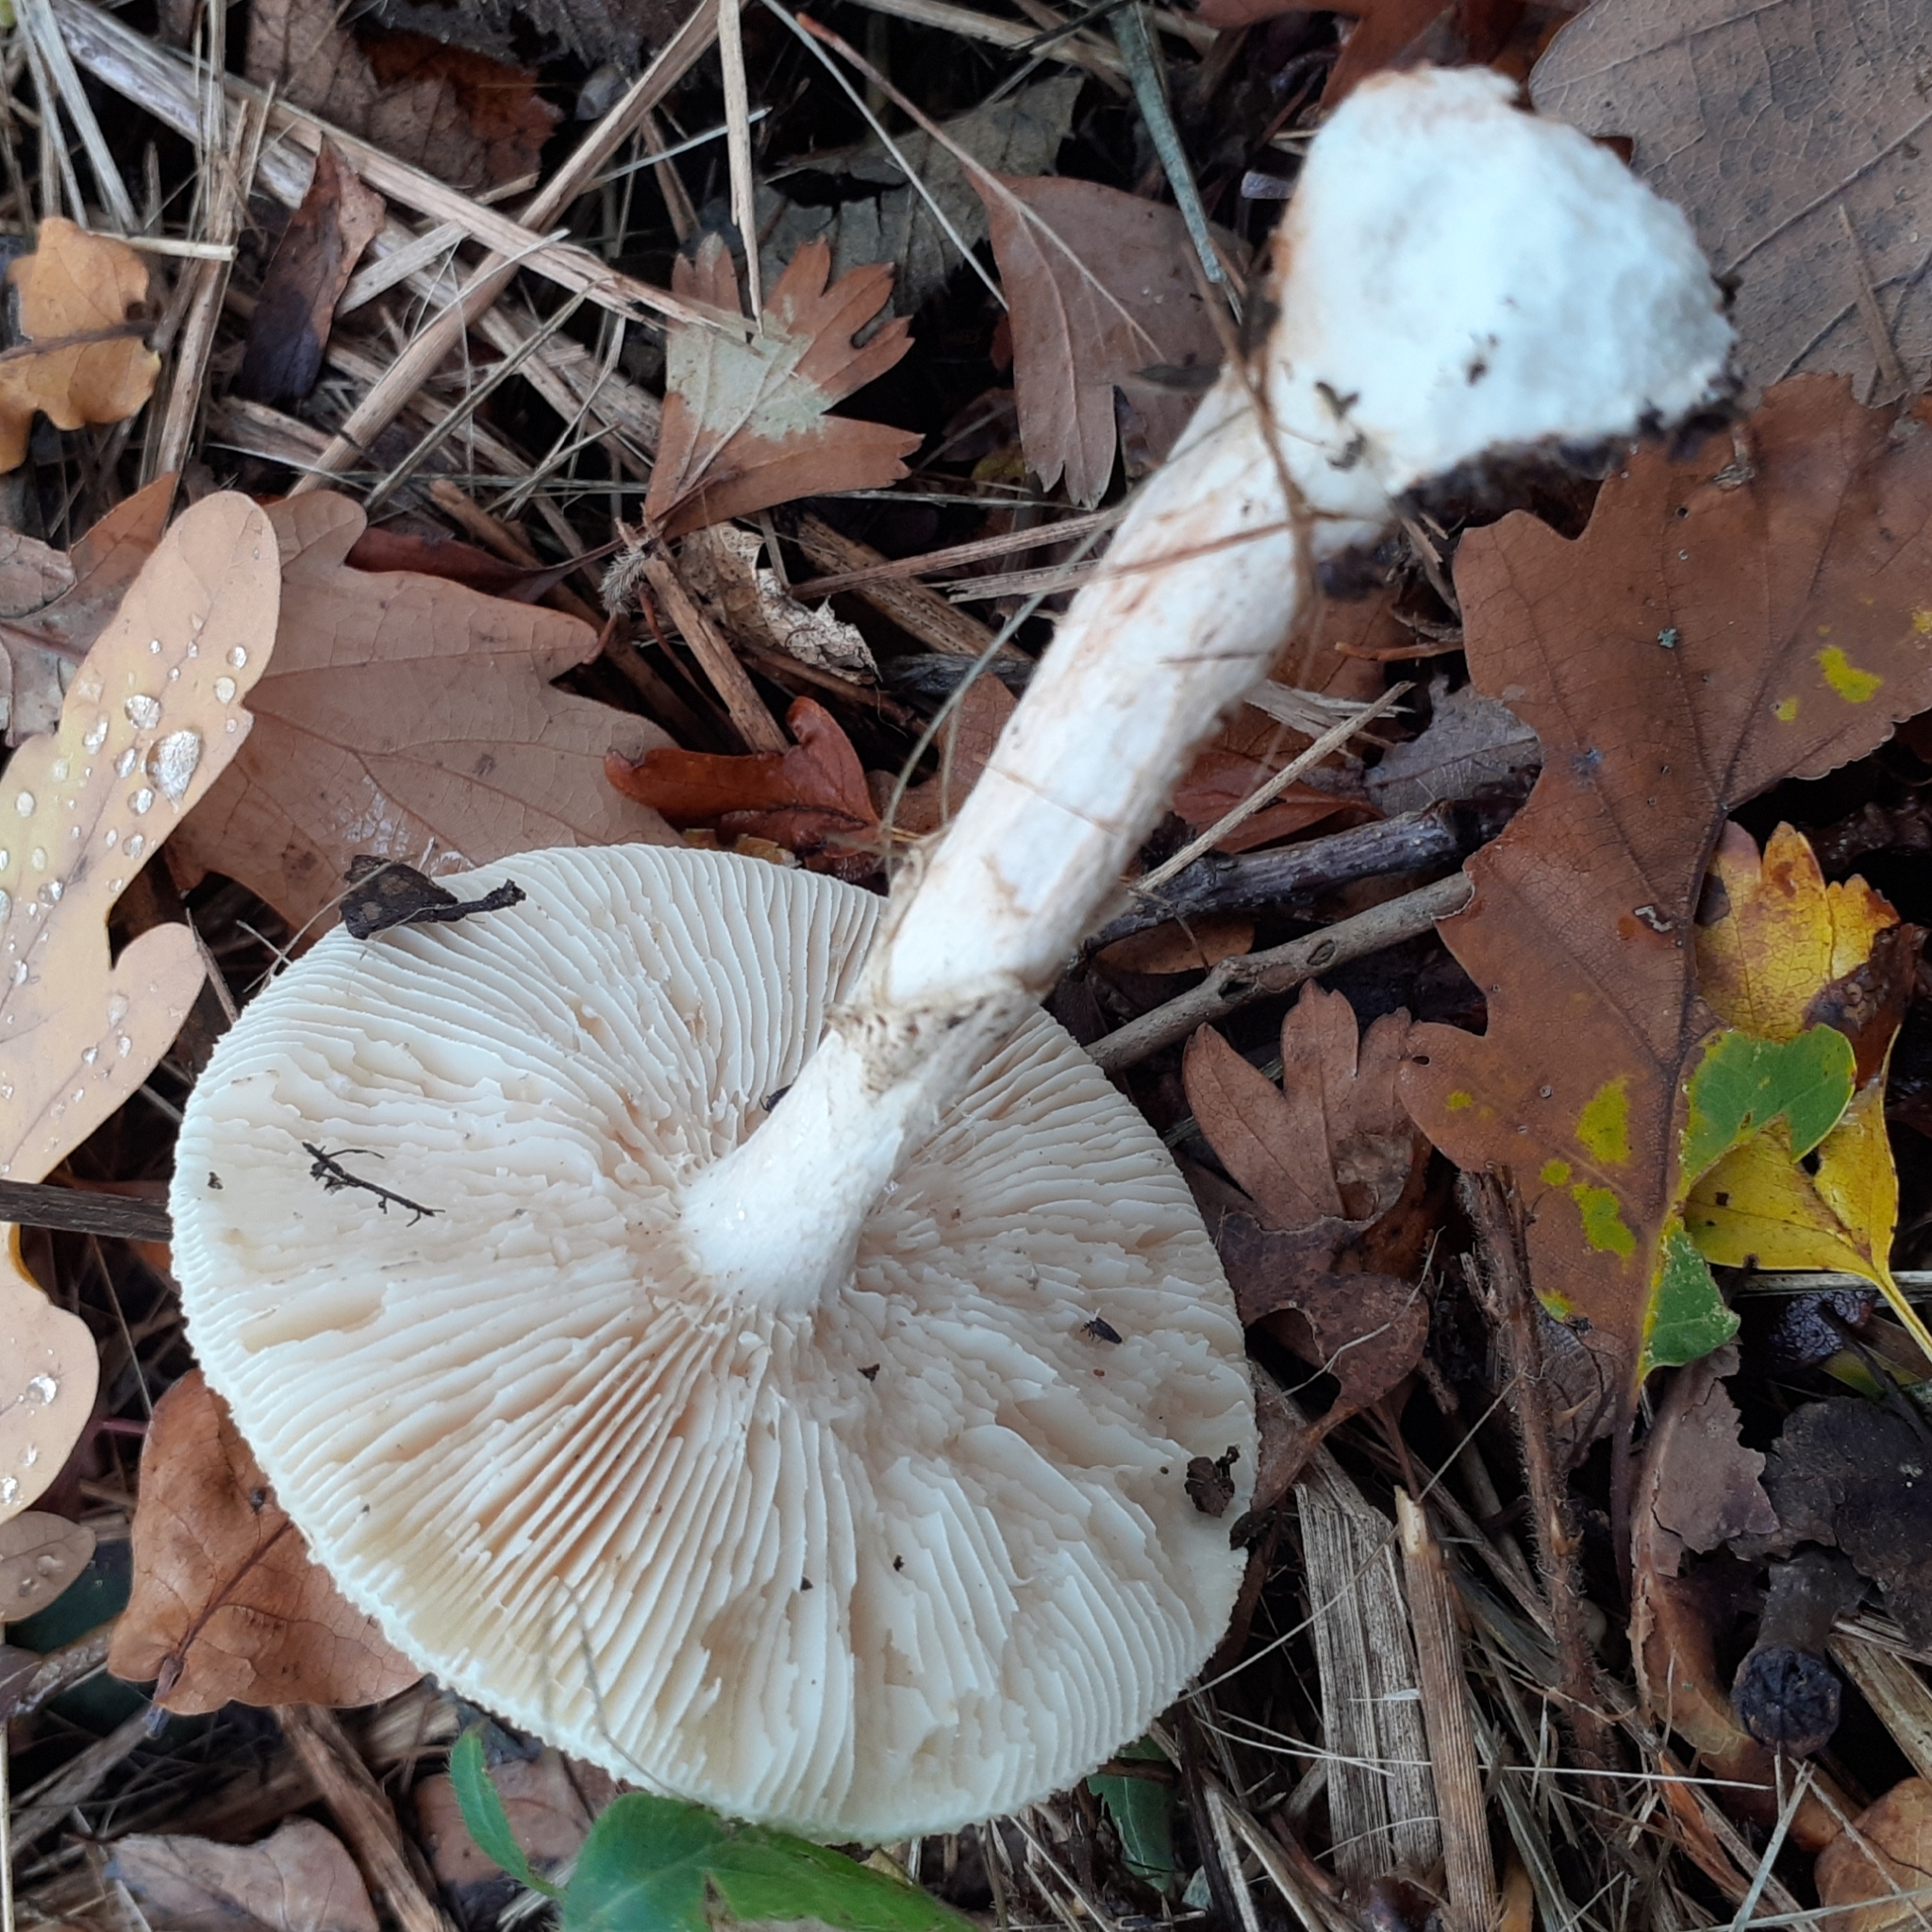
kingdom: Fungi
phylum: Basidiomycota
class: Agaricomycetes
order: Agaricales
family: Amanitaceae
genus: Amanita
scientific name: Amanita citrina
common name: False death-cap
